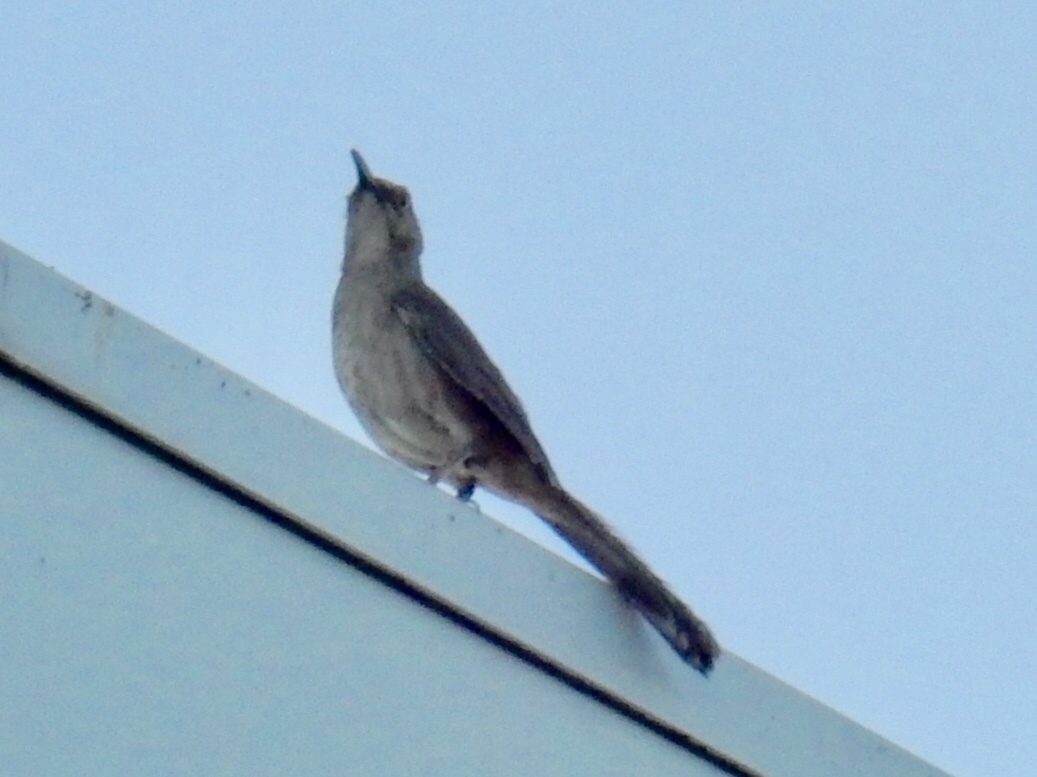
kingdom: Animalia
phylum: Chordata
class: Aves
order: Passeriformes
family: Mimidae
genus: Toxostoma
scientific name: Toxostoma curvirostre
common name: Curve-billed thrasher
